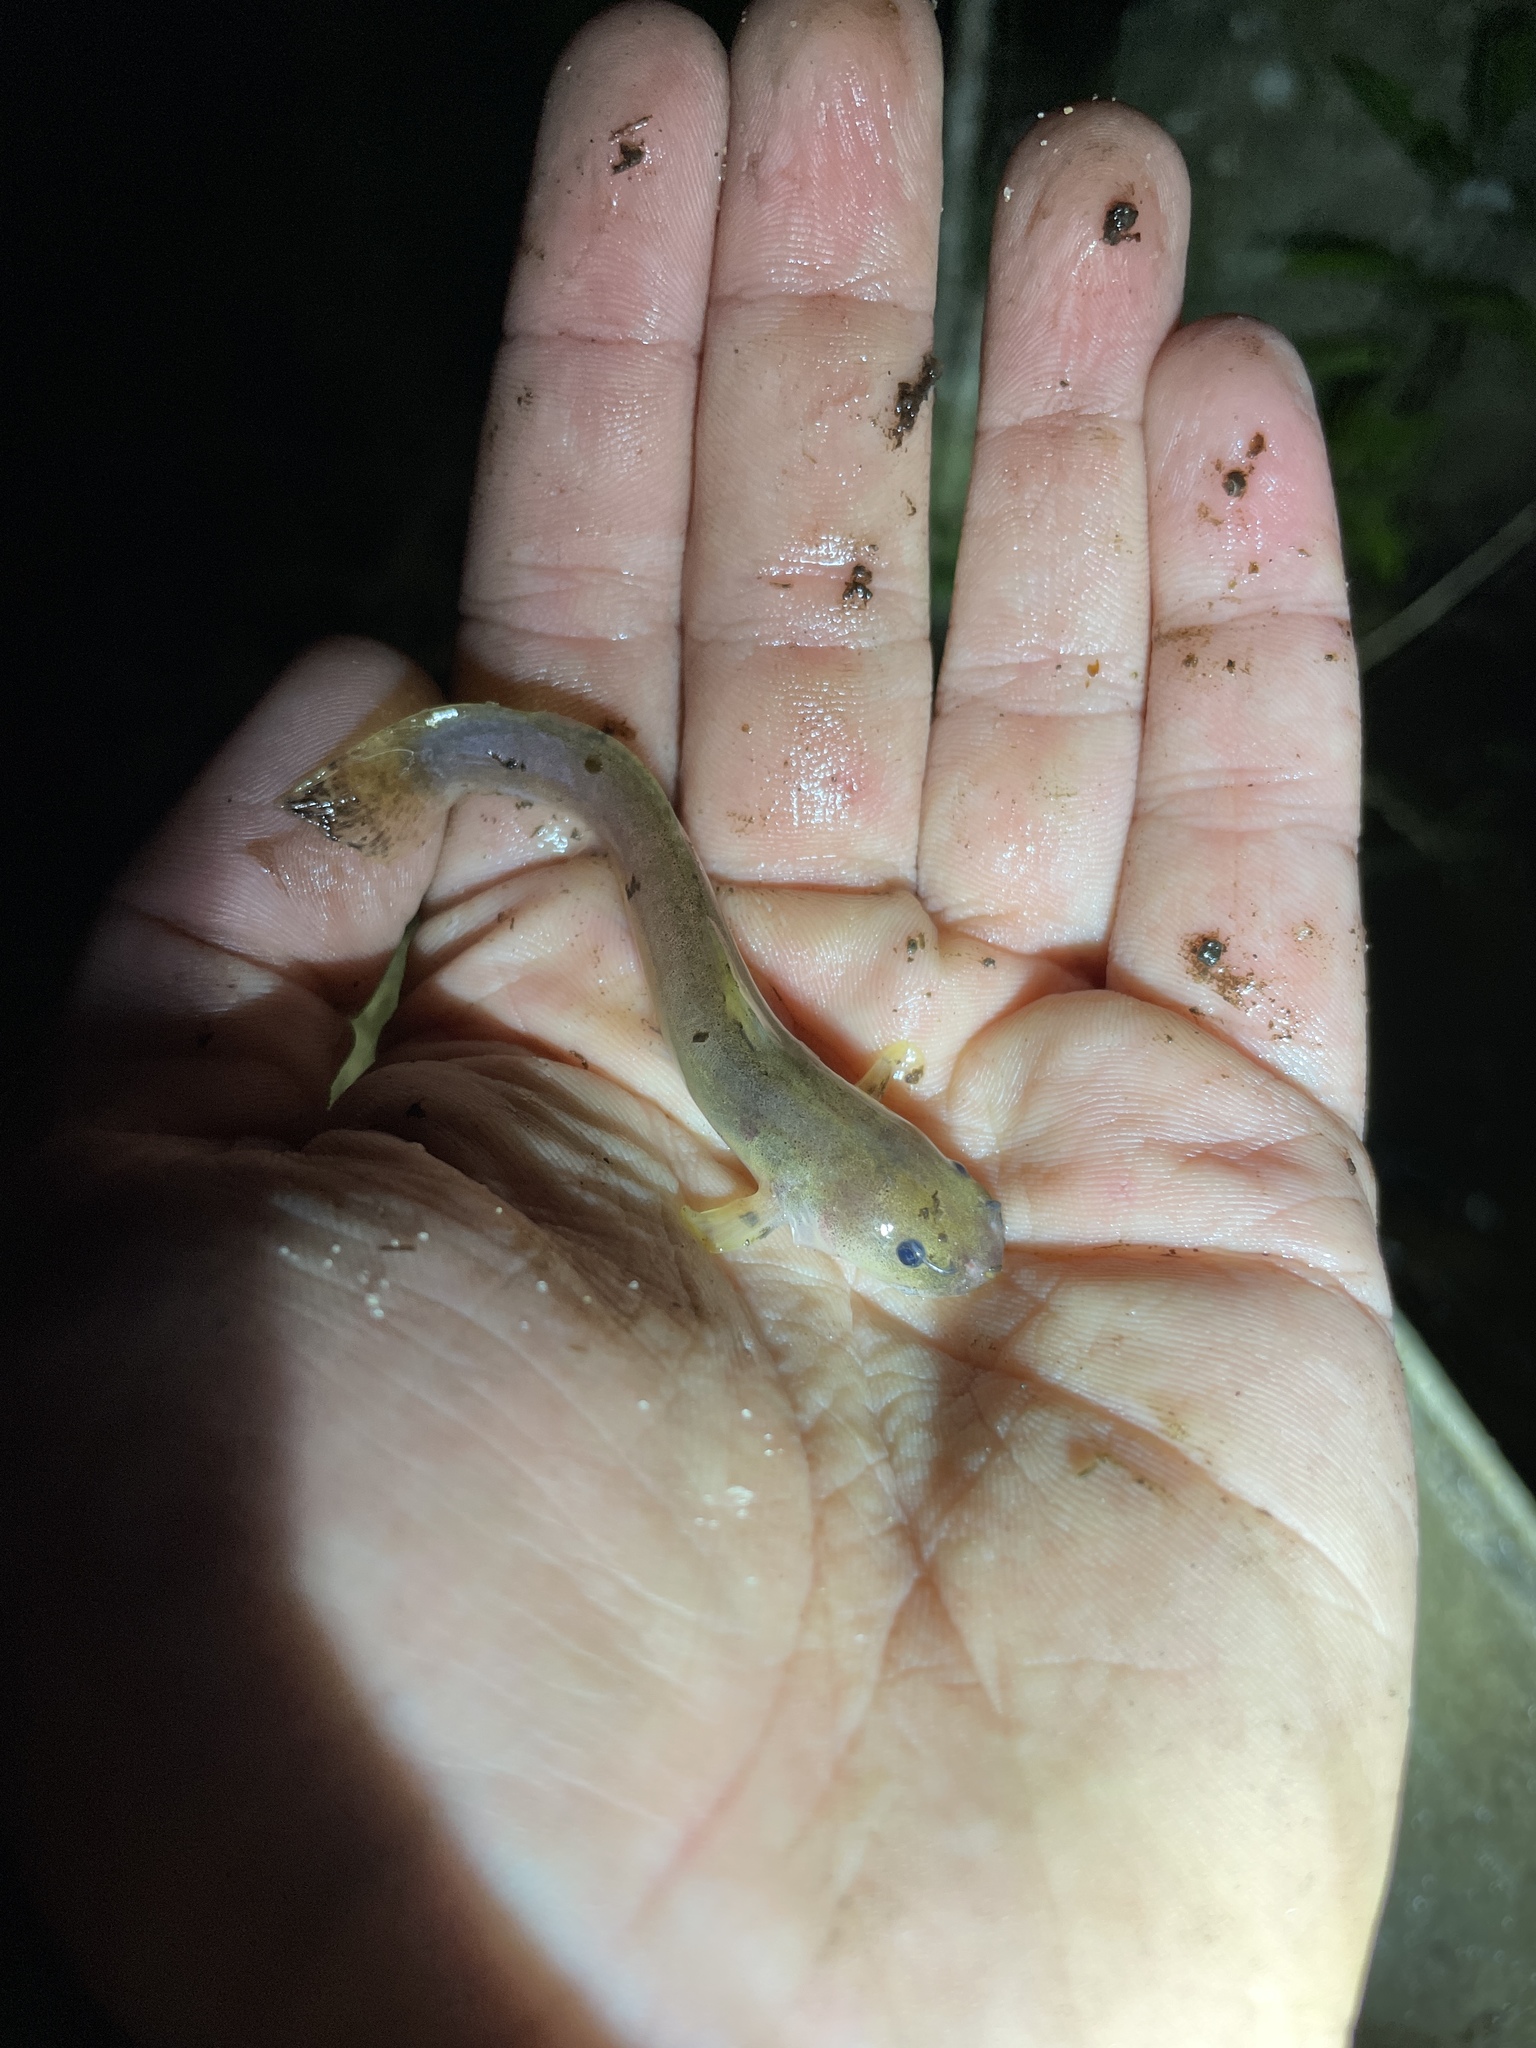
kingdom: Animalia
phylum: Chordata
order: Siluriformes
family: Ictaluridae
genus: Noturus
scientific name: Noturus leptacanthus
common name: Speckled madtom
